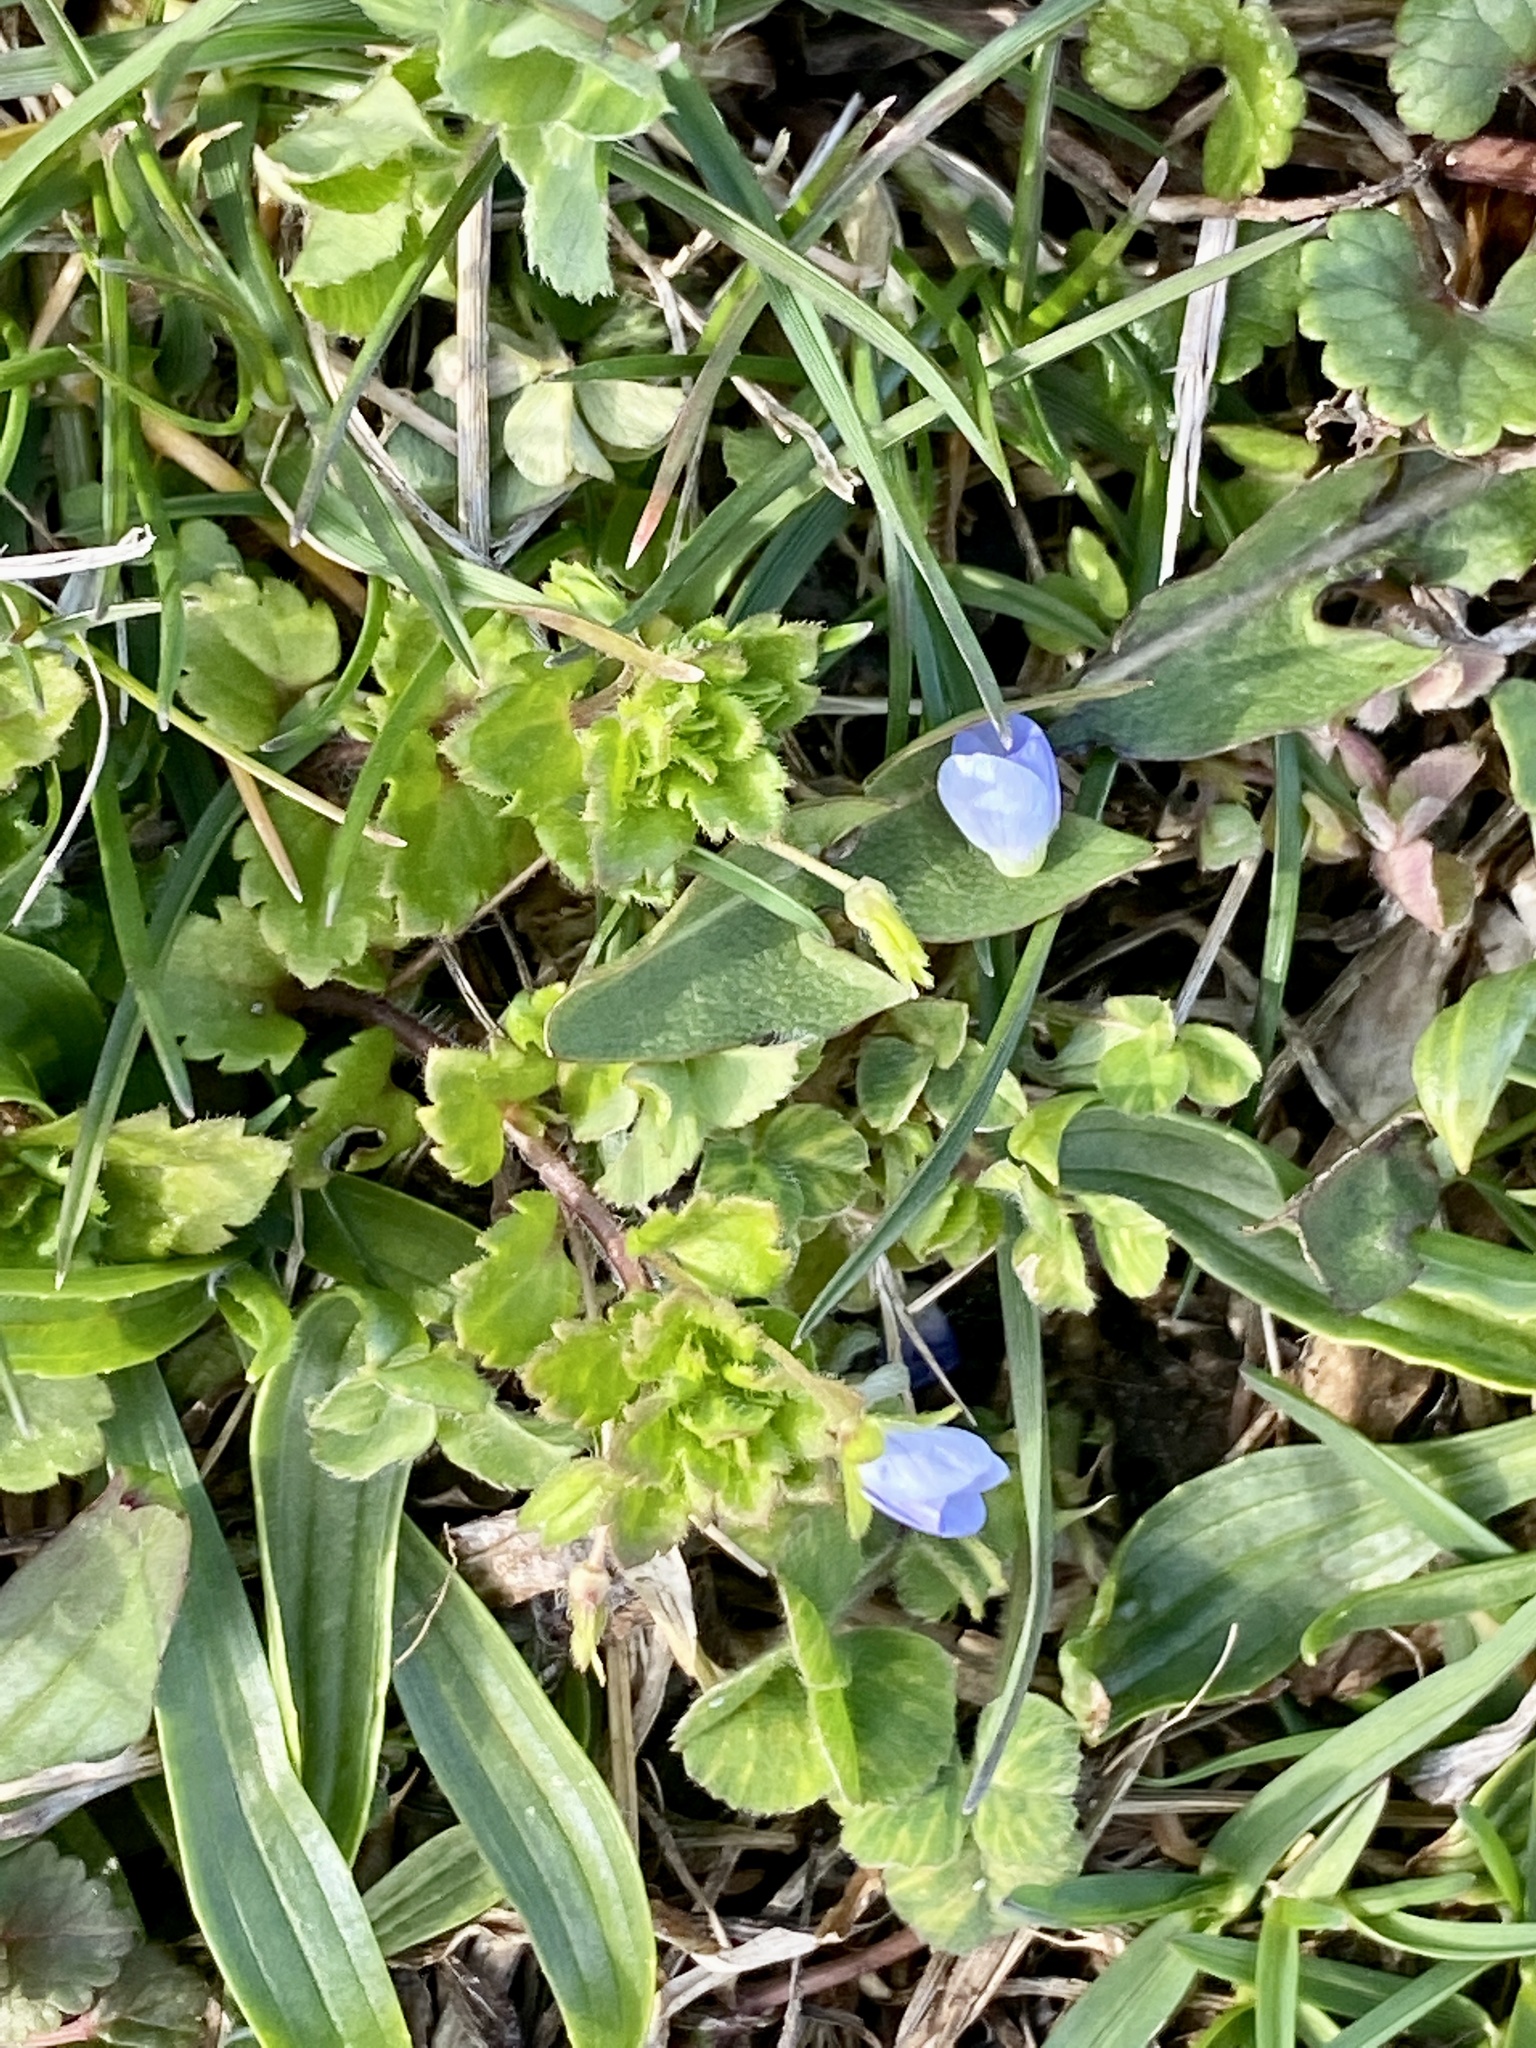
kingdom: Plantae
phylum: Tracheophyta
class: Magnoliopsida
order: Lamiales
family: Plantaginaceae
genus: Veronica
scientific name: Veronica persica
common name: Common field-speedwell
